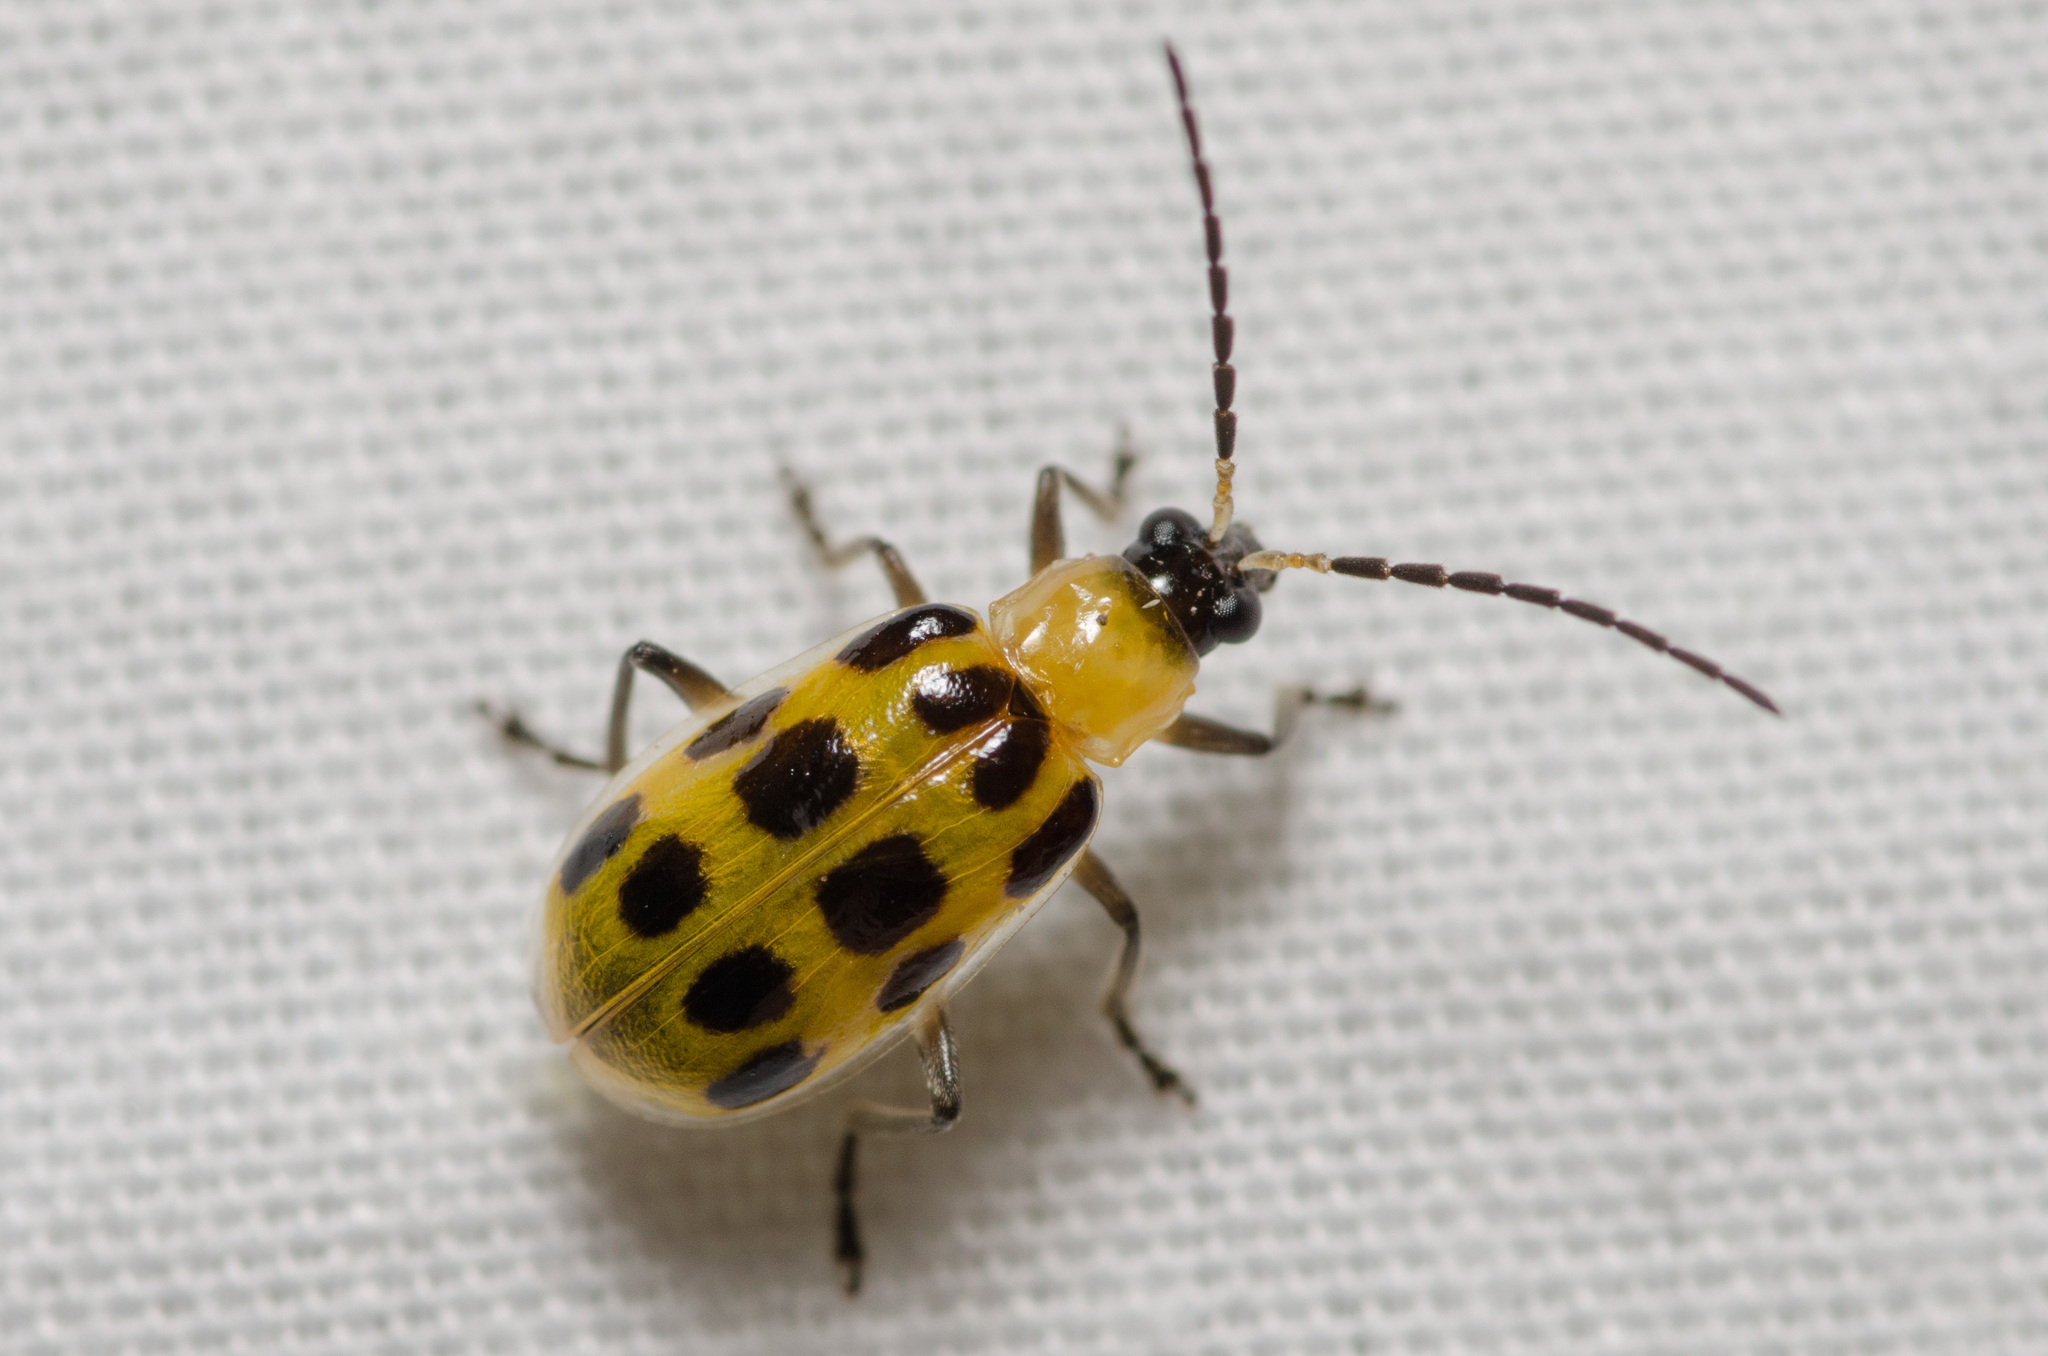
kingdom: Animalia
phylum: Arthropoda
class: Insecta
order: Coleoptera
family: Chrysomelidae
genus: Diabrotica
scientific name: Diabrotica undecimpunctata
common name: Spotted cucumber beetle
